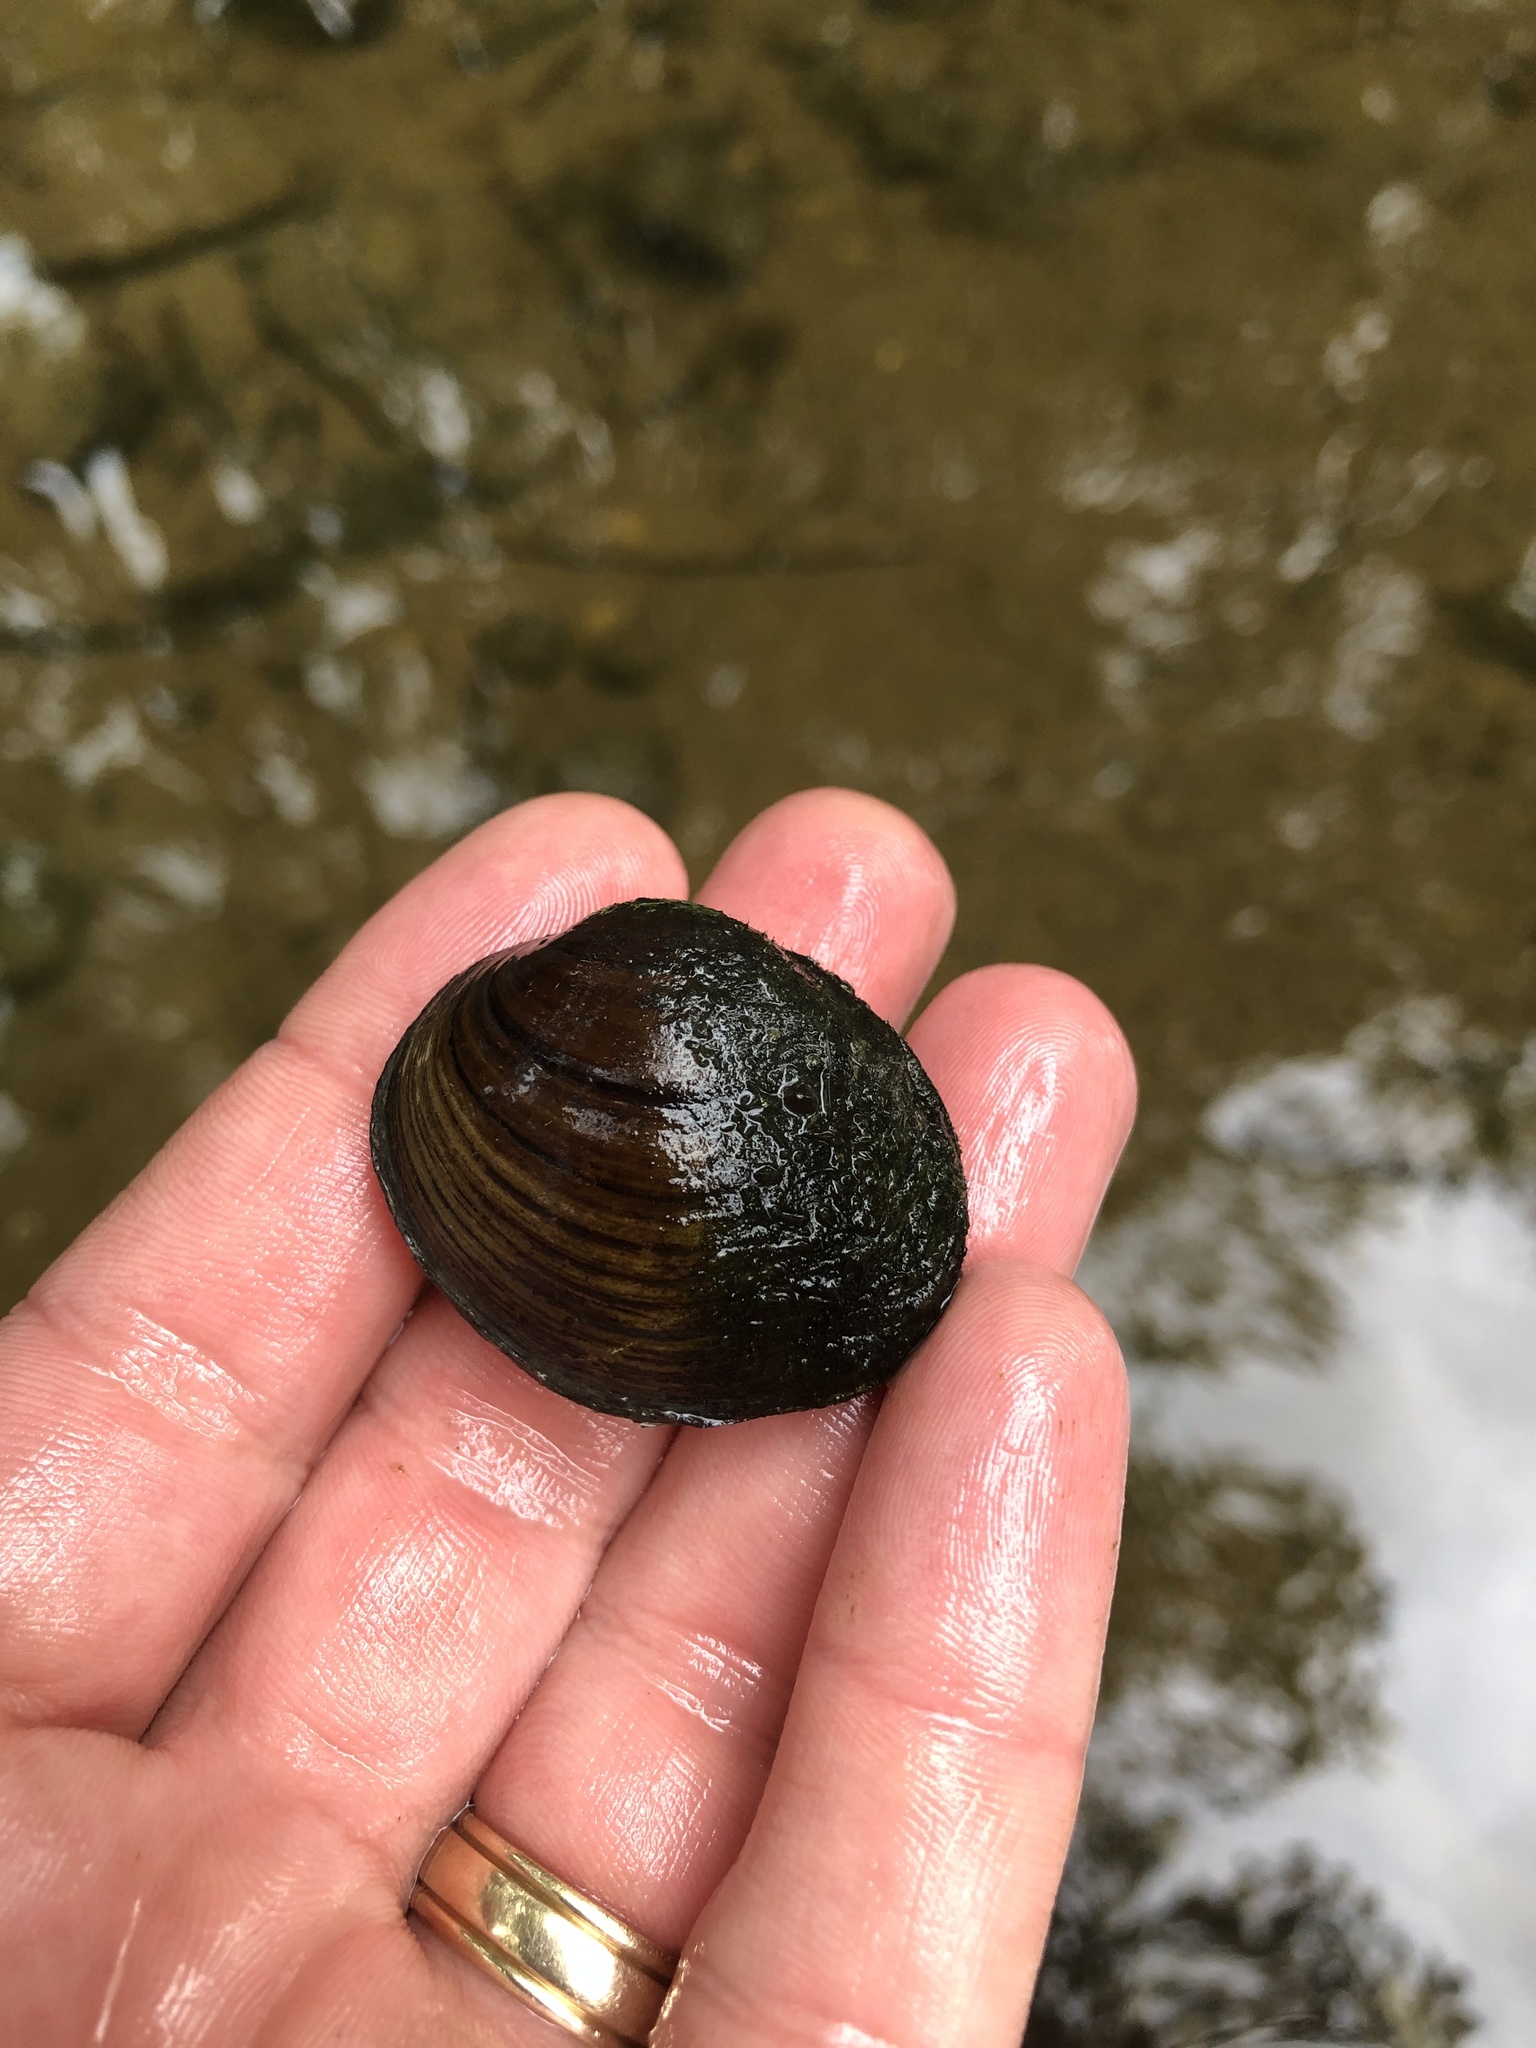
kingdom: Animalia
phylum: Mollusca
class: Bivalvia
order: Unionida
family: Unionidae
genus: Obovaria
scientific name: Obovaria subrotunda
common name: Round hickorynut
